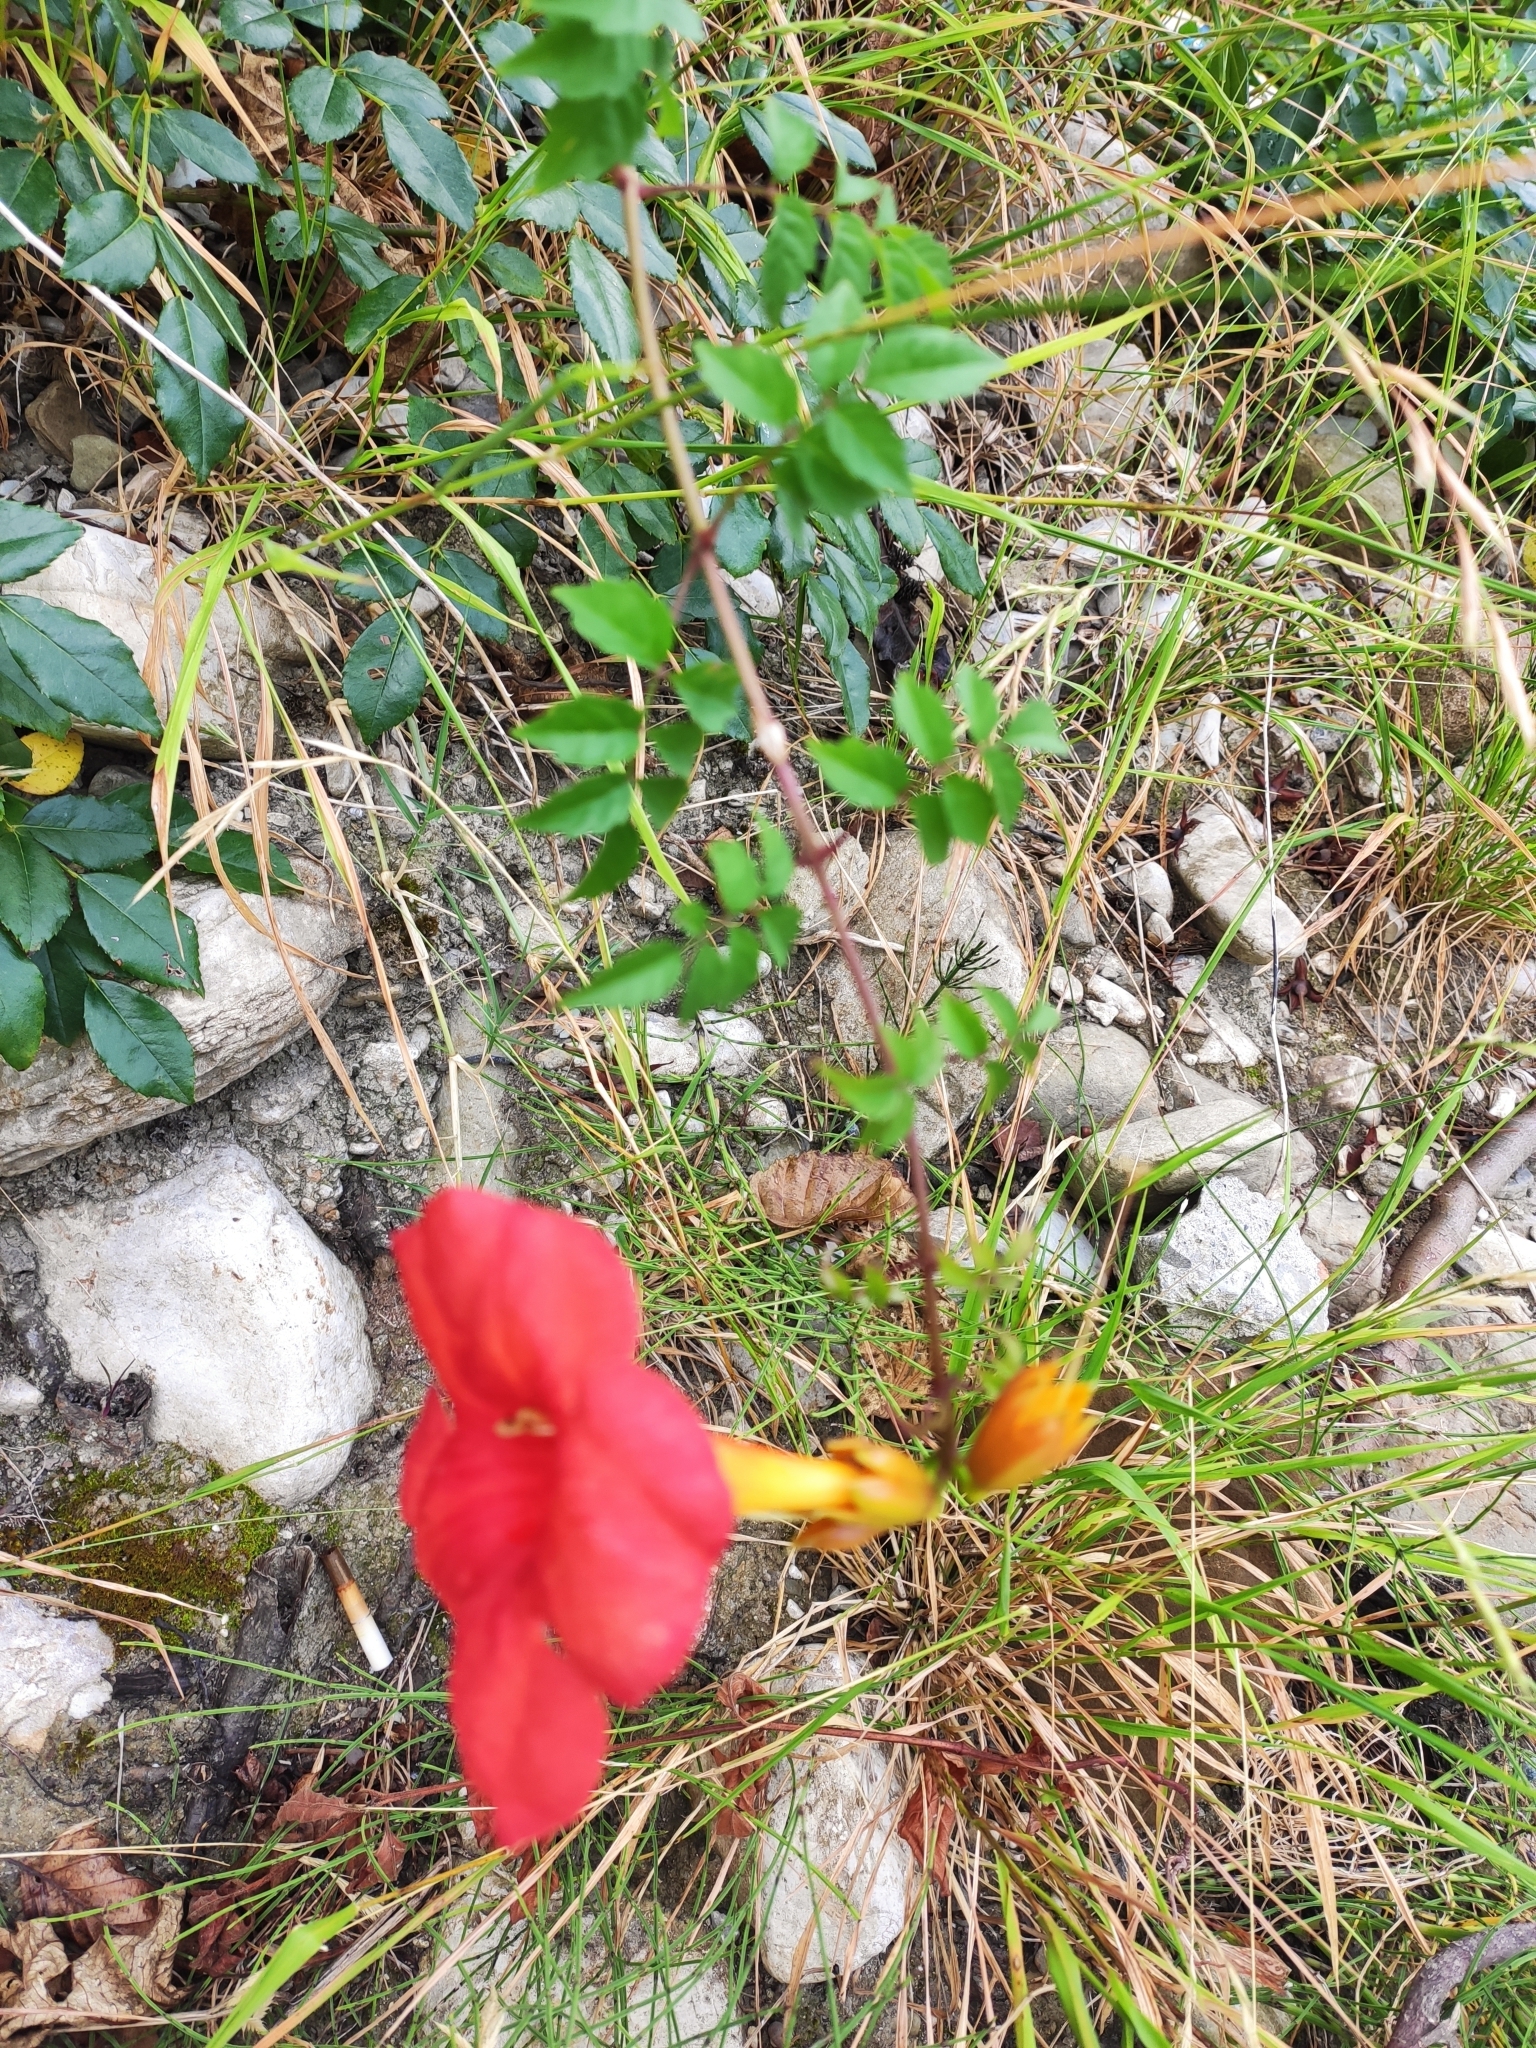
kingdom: Plantae
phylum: Tracheophyta
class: Magnoliopsida
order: Lamiales
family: Bignoniaceae
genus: Campsis
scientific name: Campsis tagliabueana
